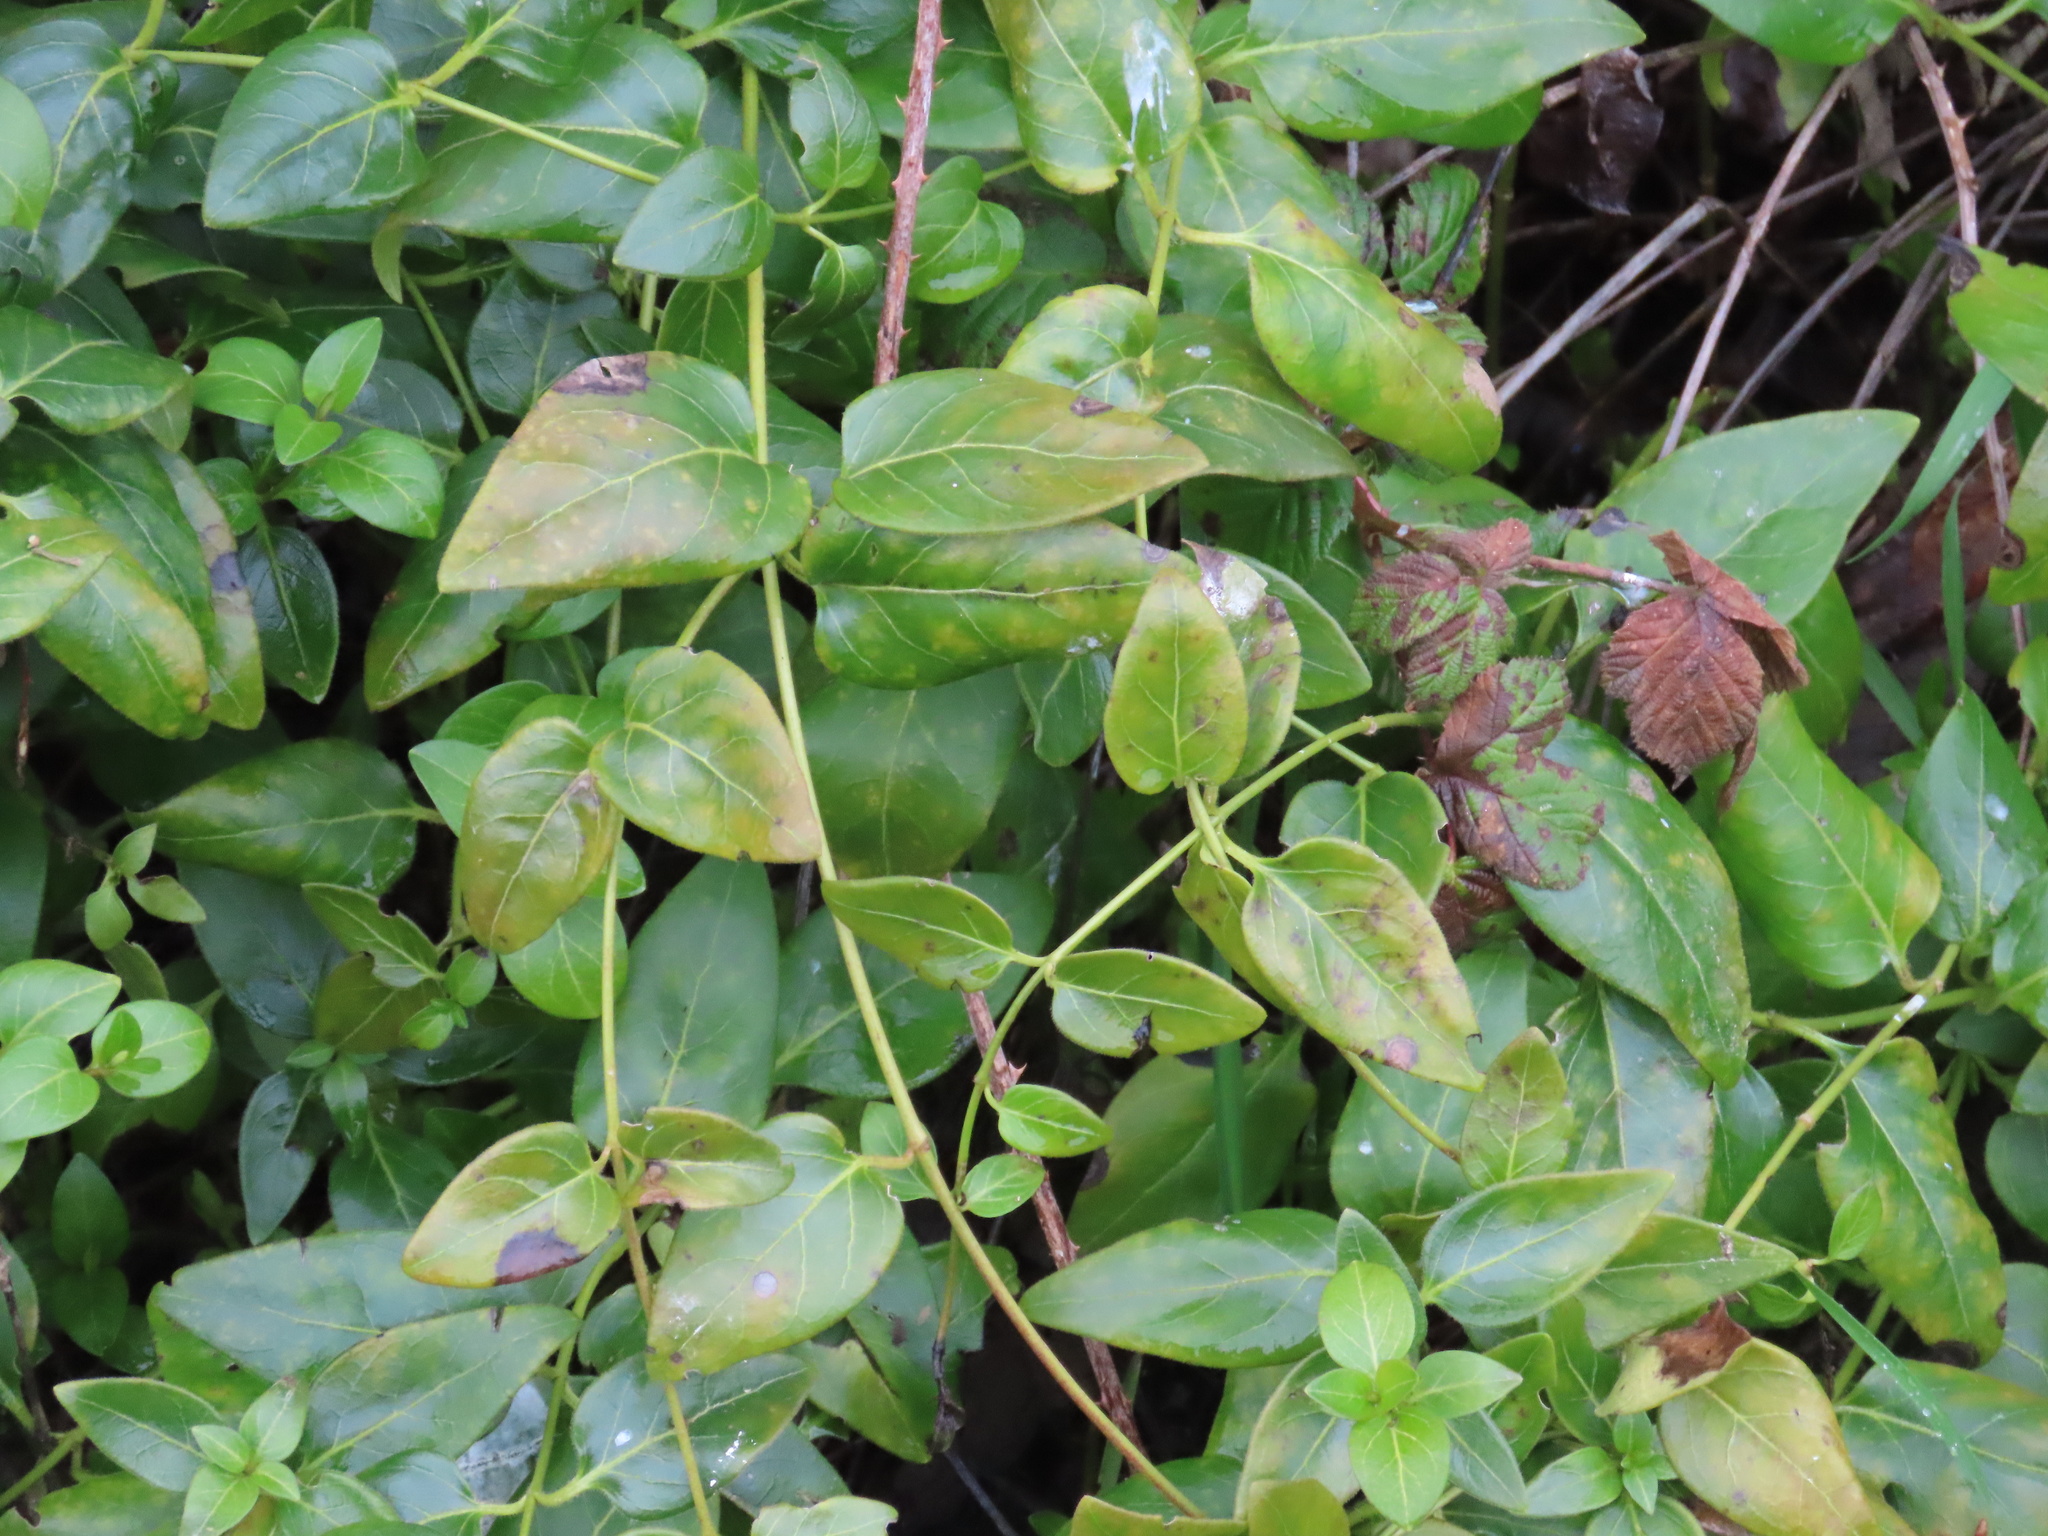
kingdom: Plantae
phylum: Tracheophyta
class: Magnoliopsida
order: Gentianales
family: Apocynaceae
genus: Vinca
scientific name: Vinca major
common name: Greater periwinkle
